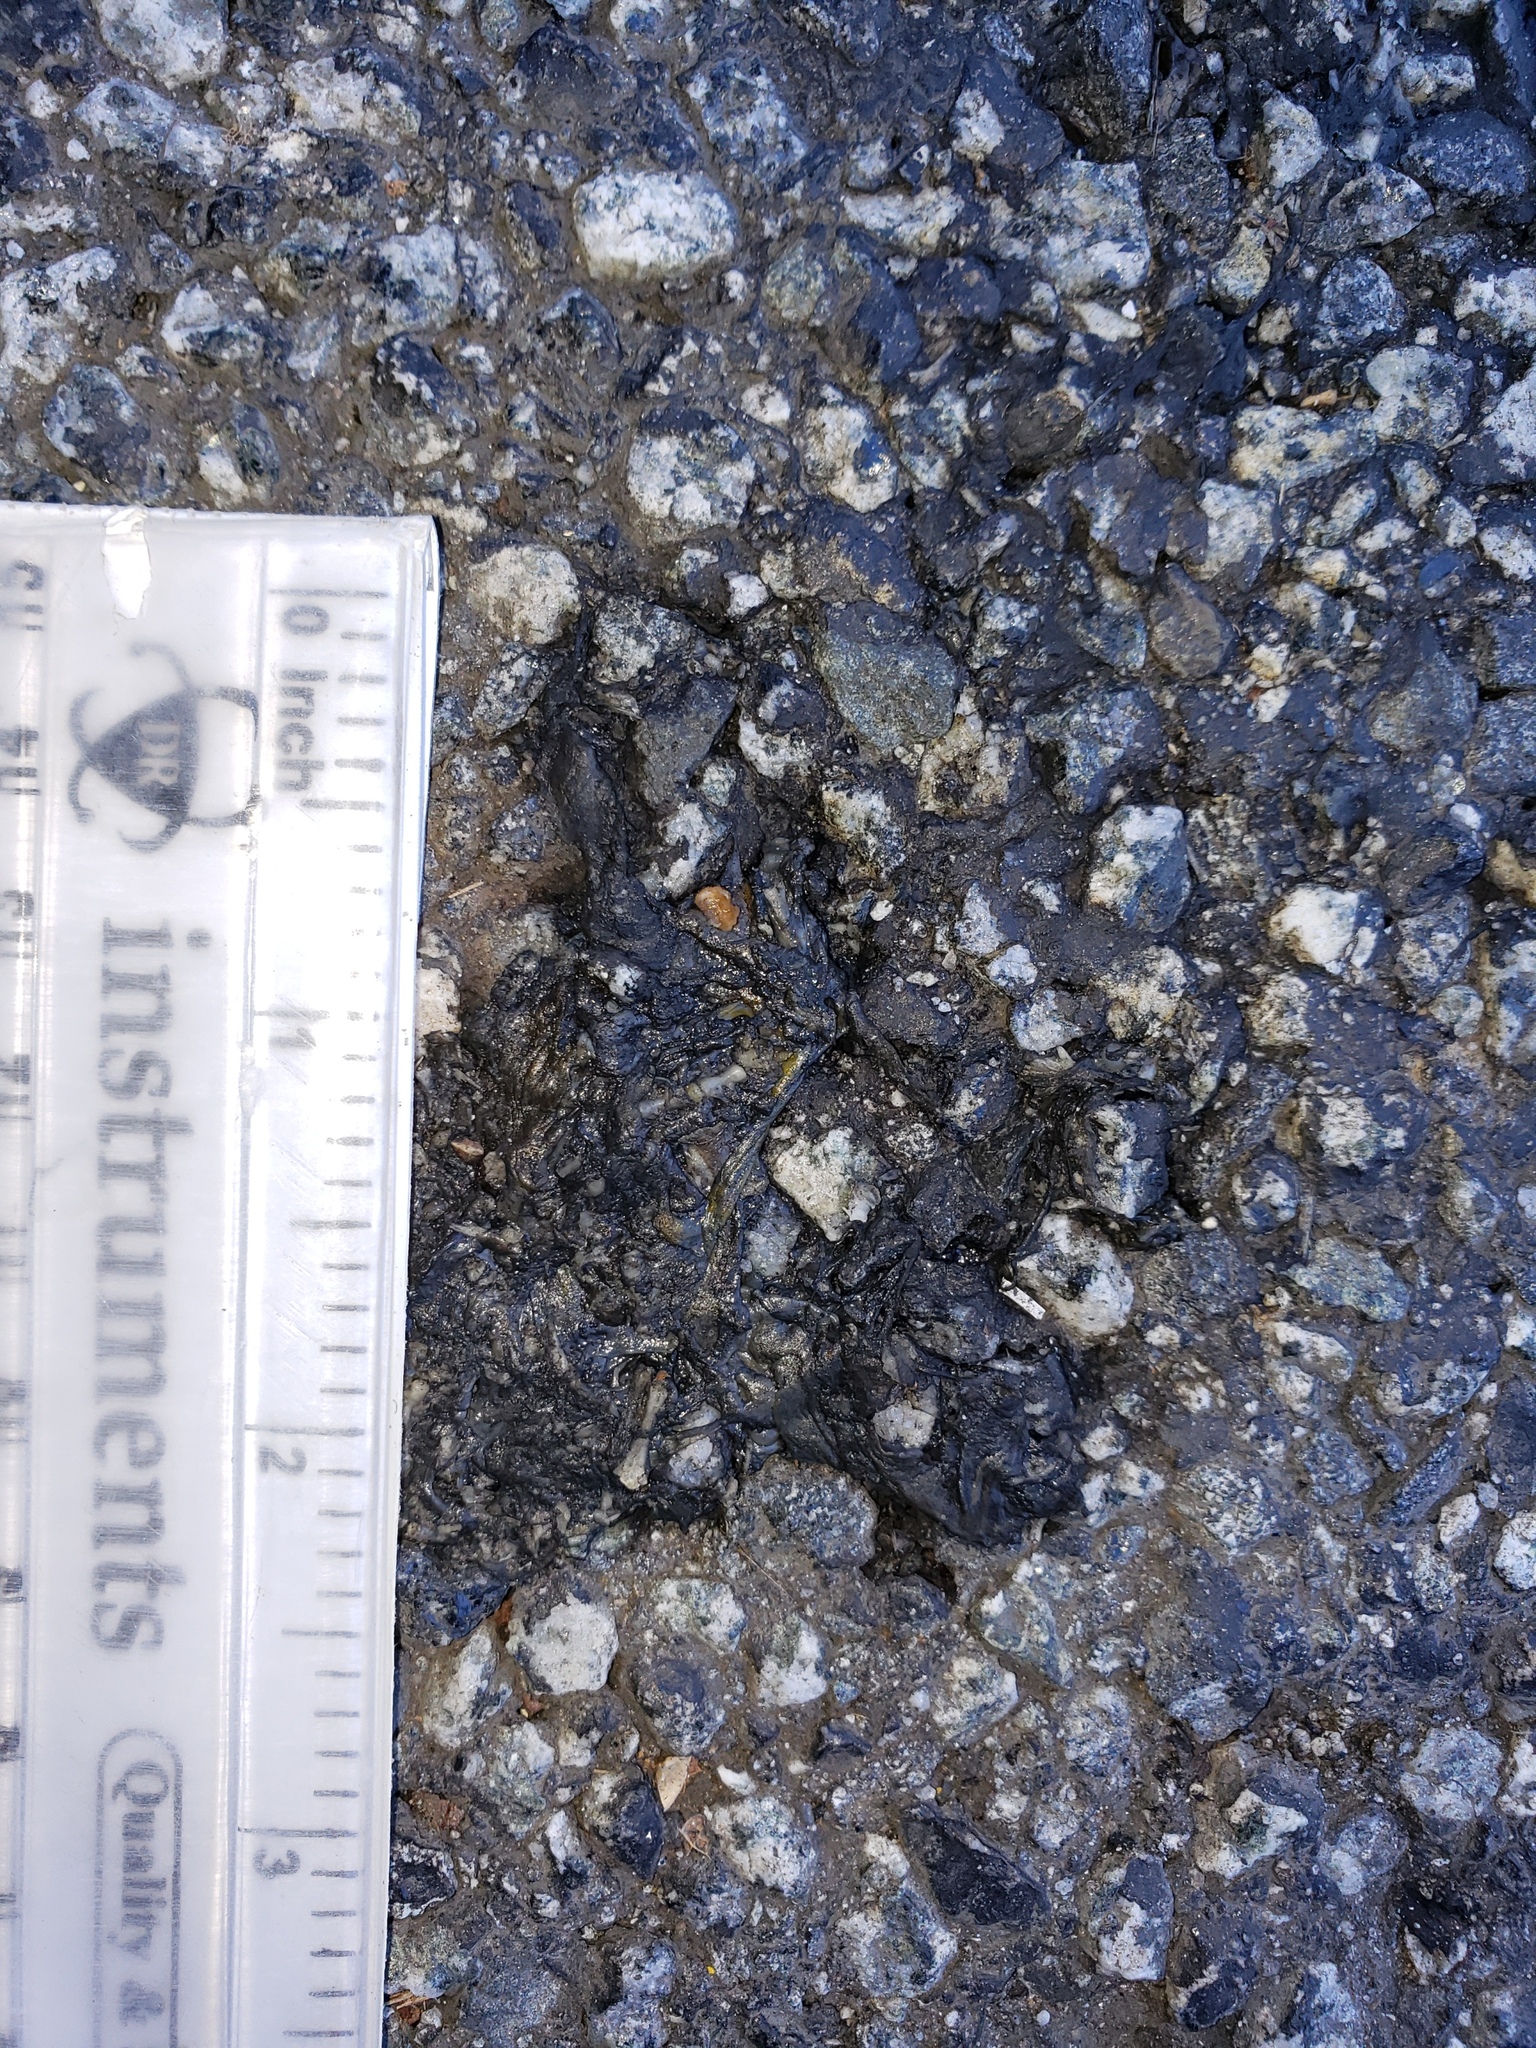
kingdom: Animalia
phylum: Chordata
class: Amphibia
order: Caudata
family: Salamandridae
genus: Taricha
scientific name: Taricha
